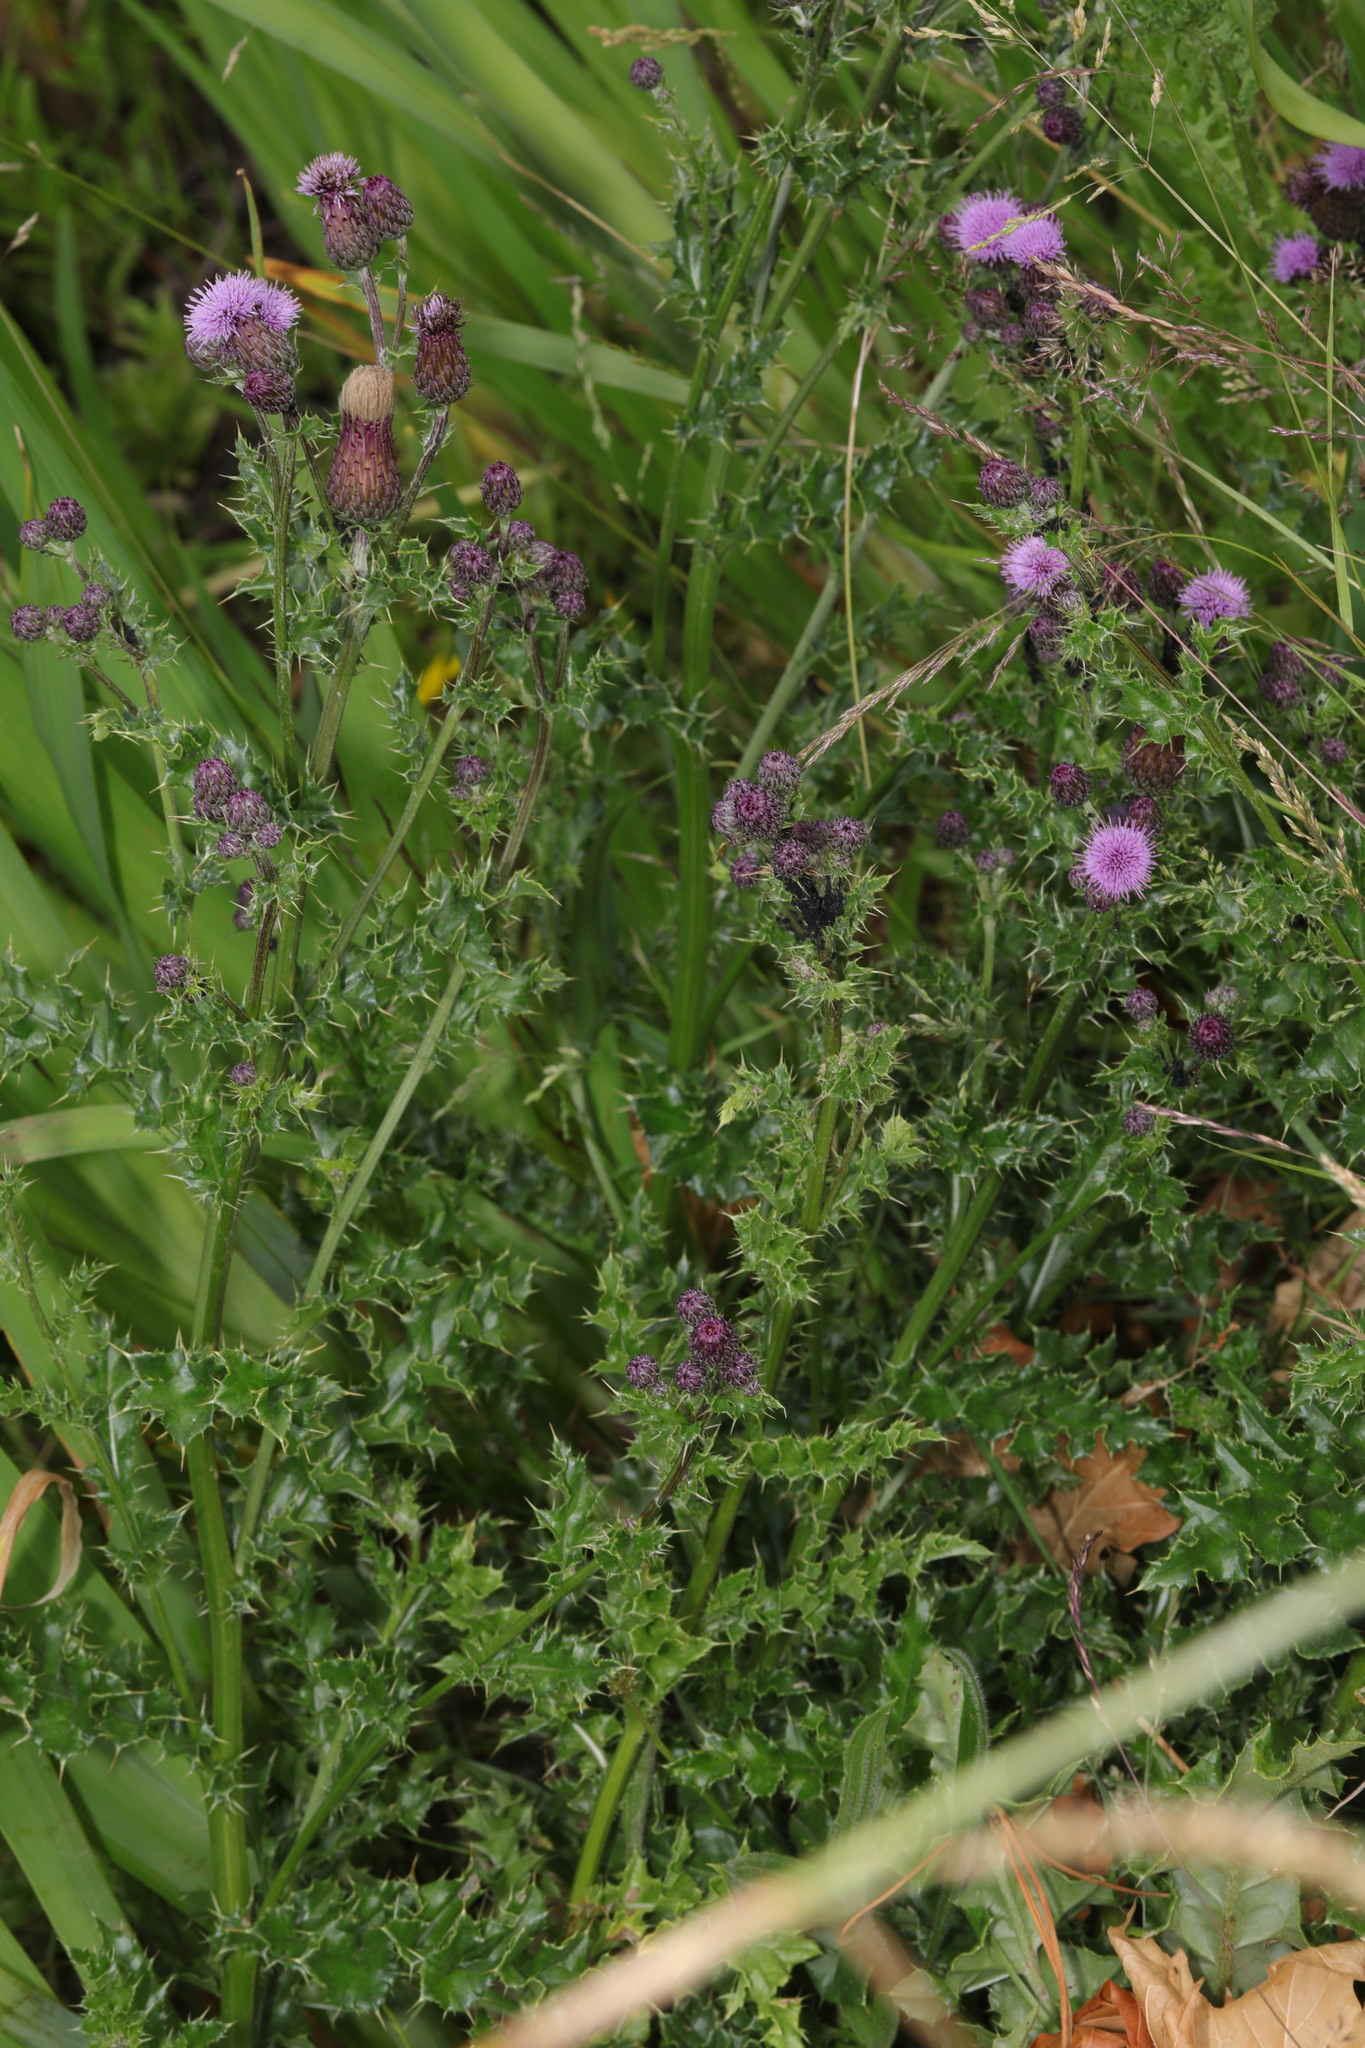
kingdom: Plantae
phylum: Tracheophyta
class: Magnoliopsida
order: Asterales
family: Asteraceae
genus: Cirsium
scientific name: Cirsium arvense
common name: Creeping thistle
